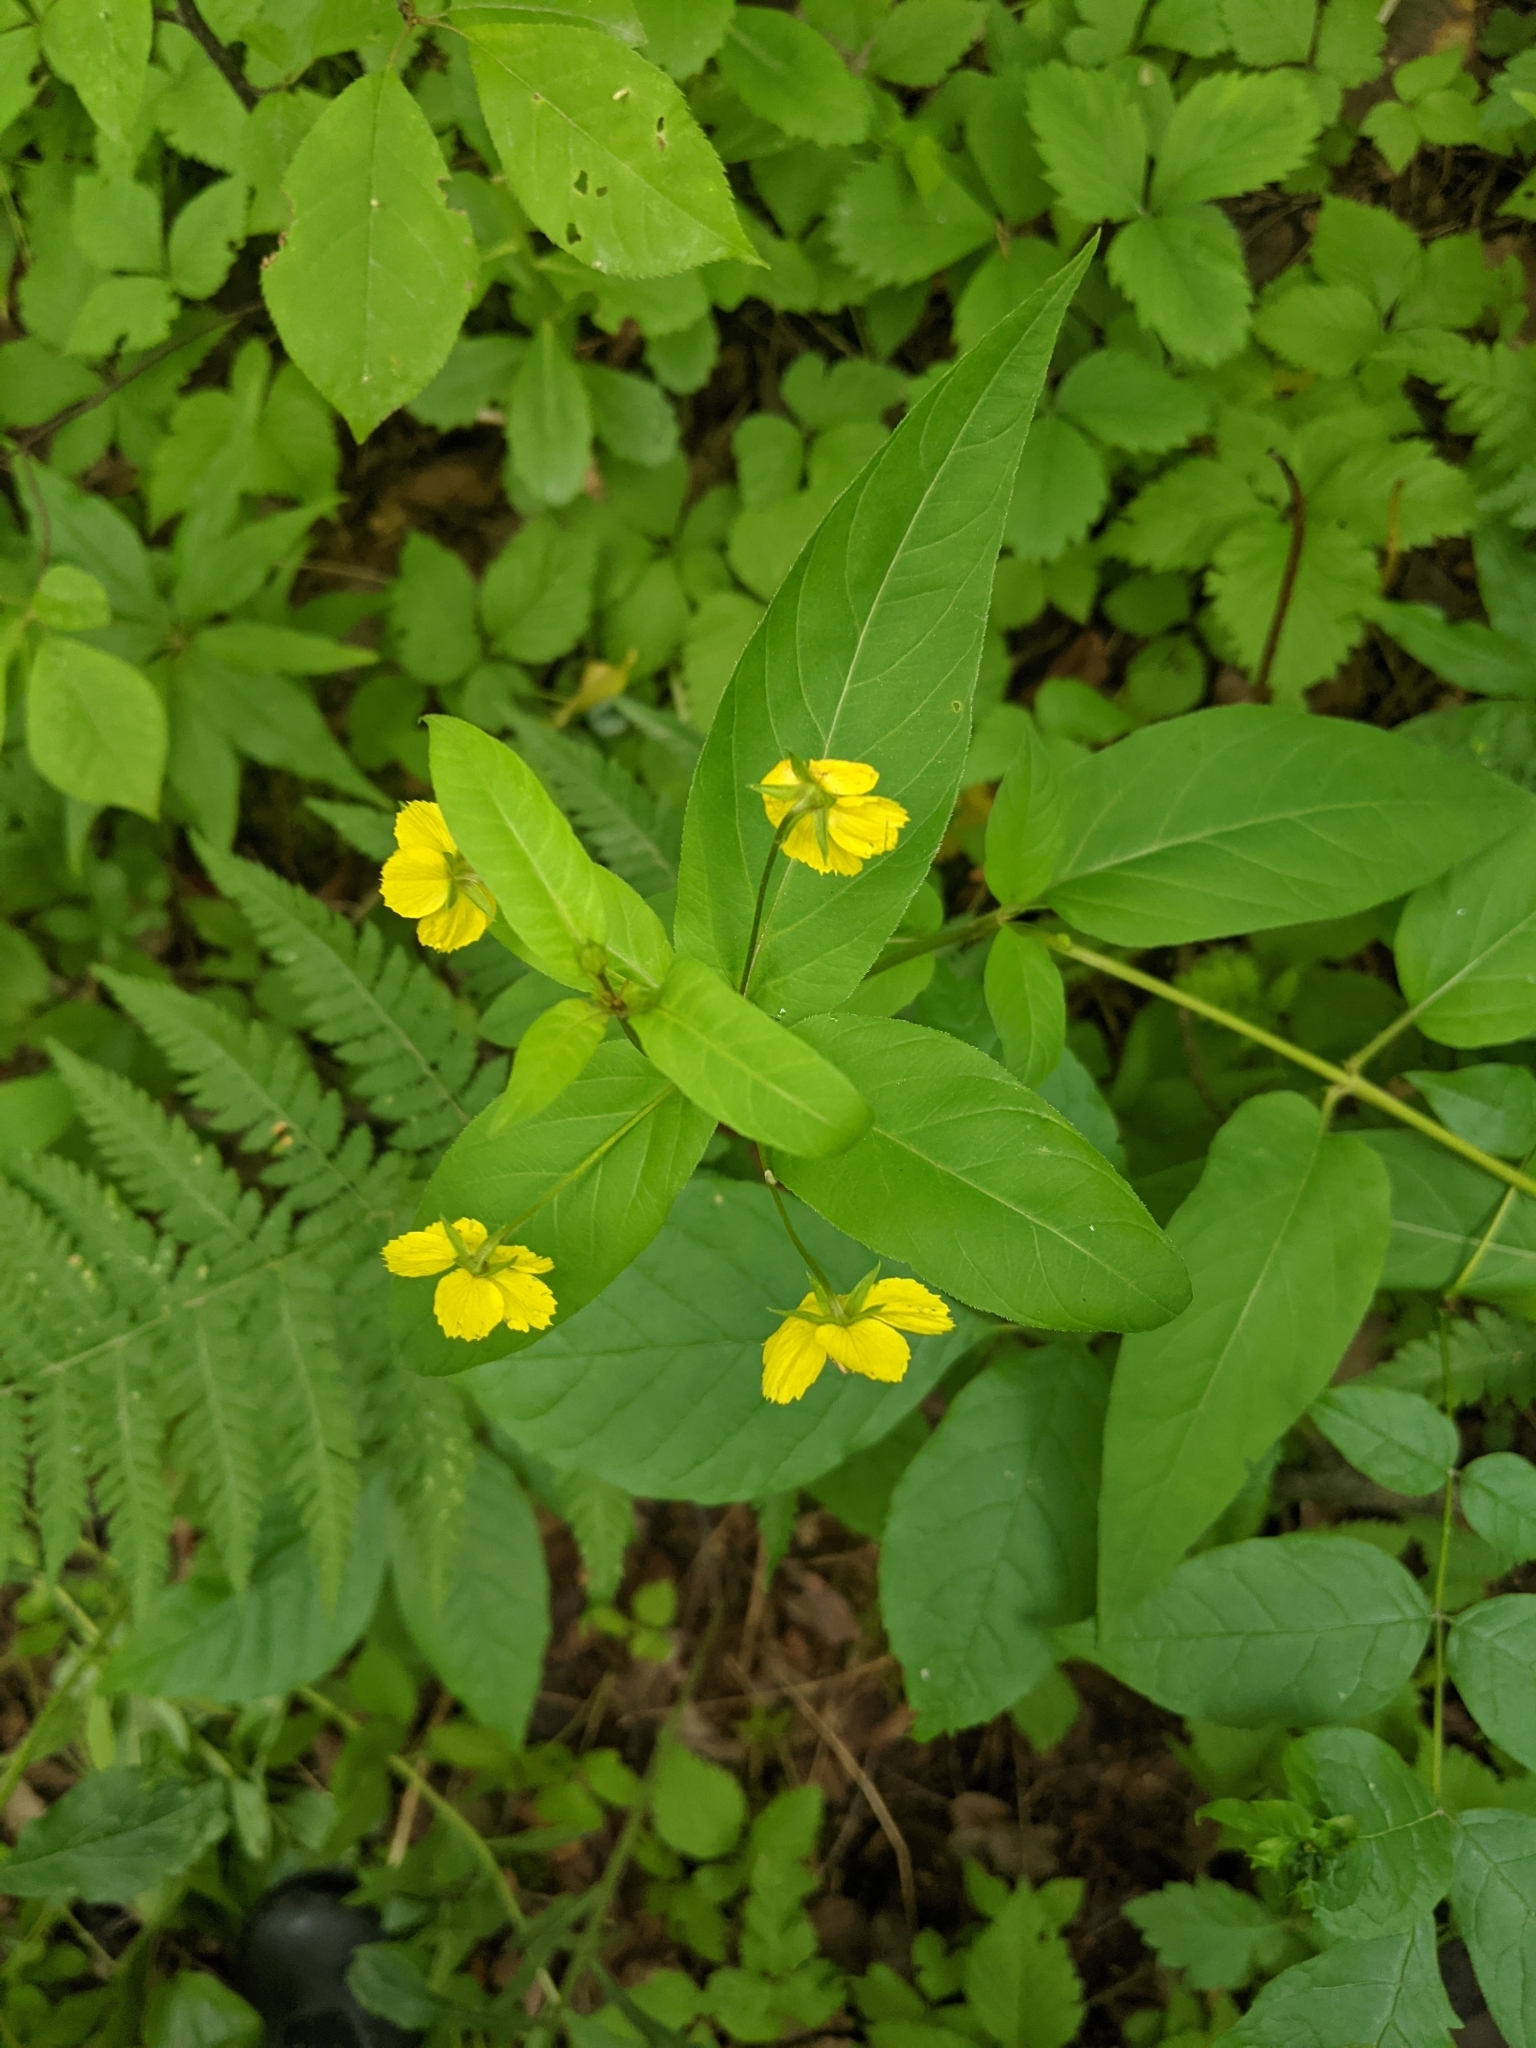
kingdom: Plantae
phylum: Tracheophyta
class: Magnoliopsida
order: Ericales
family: Primulaceae
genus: Lysimachia
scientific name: Lysimachia ciliata
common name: Fringed loosestrife
